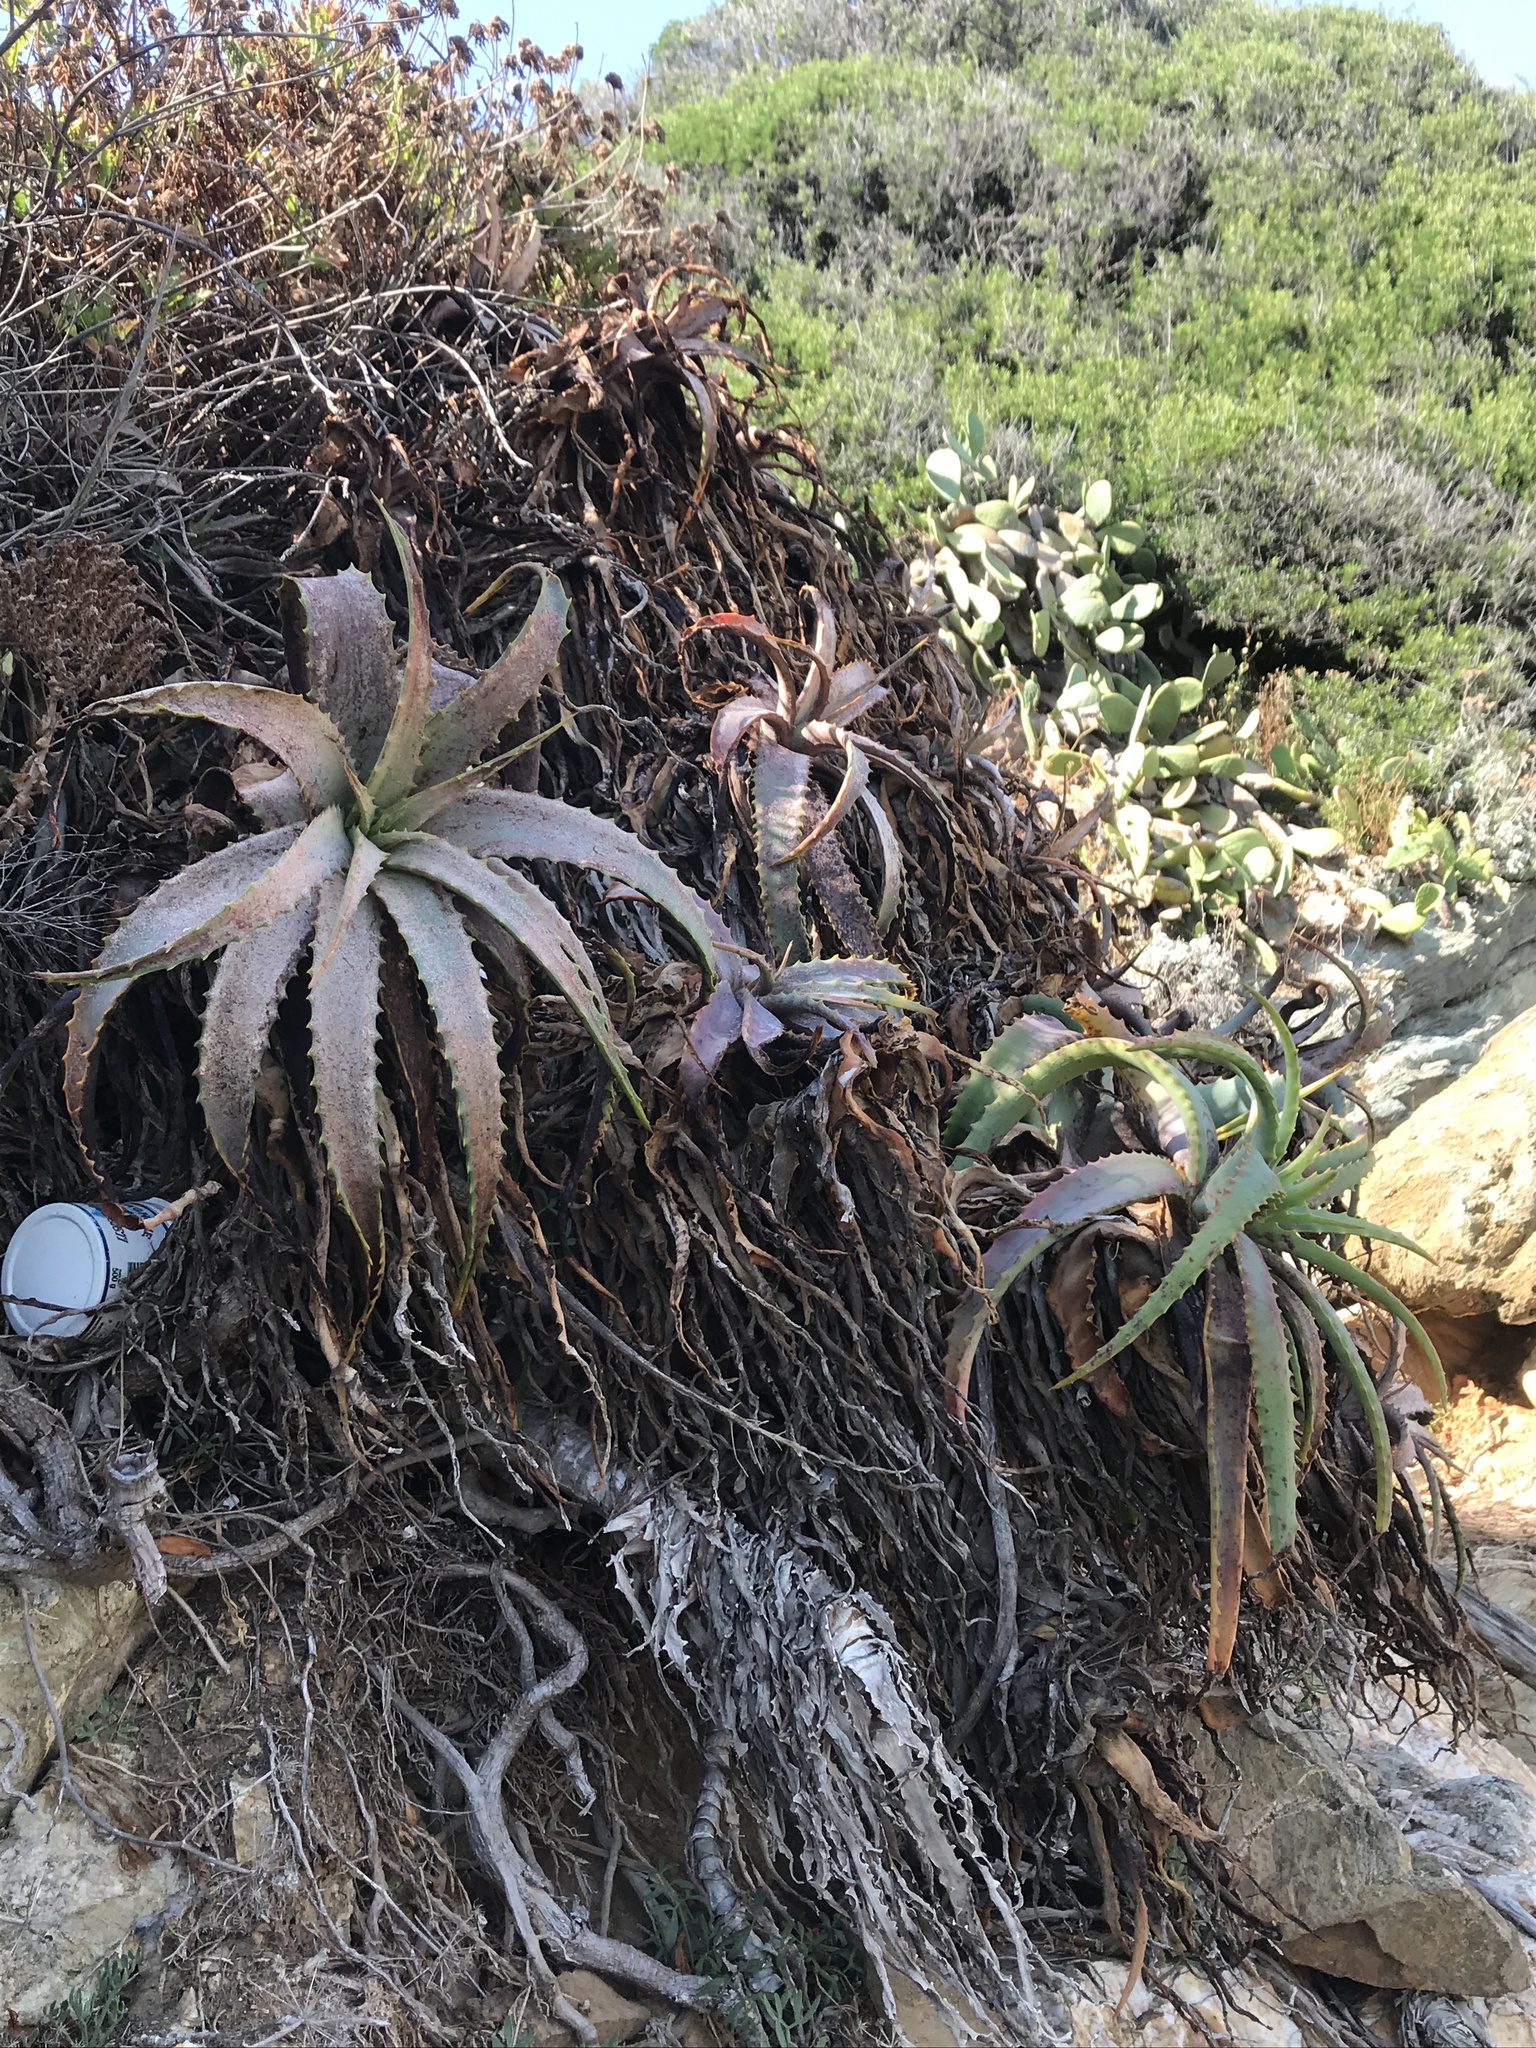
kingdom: Plantae
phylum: Tracheophyta
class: Liliopsida
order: Asparagales
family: Asphodelaceae
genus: Aloe
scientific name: Aloe arborescens
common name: Candelabra aloe
